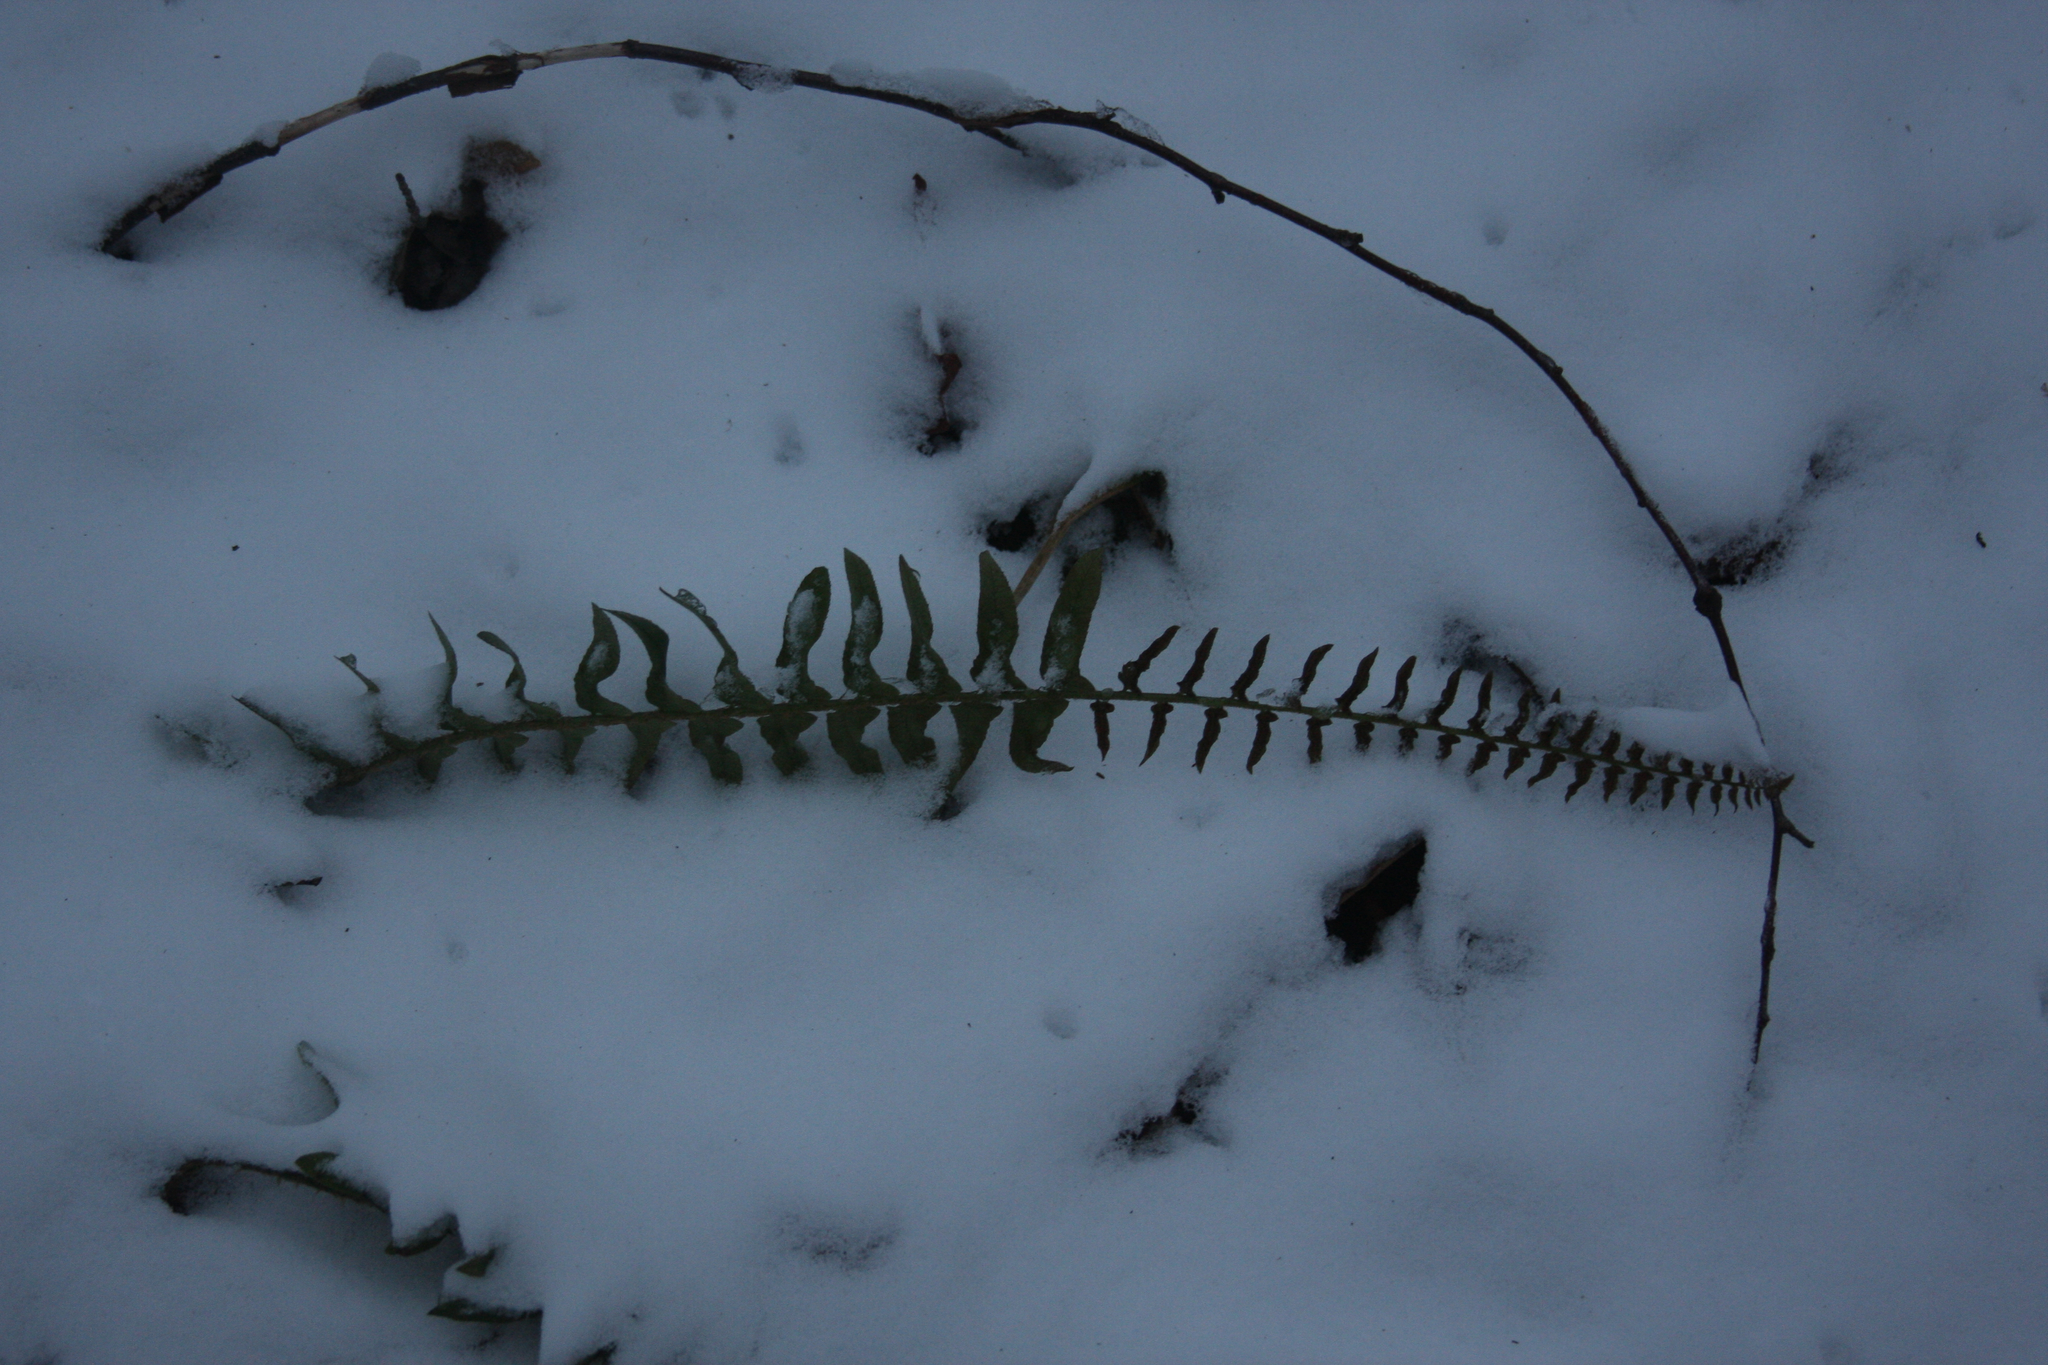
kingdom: Plantae
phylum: Tracheophyta
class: Polypodiopsida
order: Polypodiales
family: Dryopteridaceae
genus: Polystichum
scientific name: Polystichum acrostichoides
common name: Christmas fern
